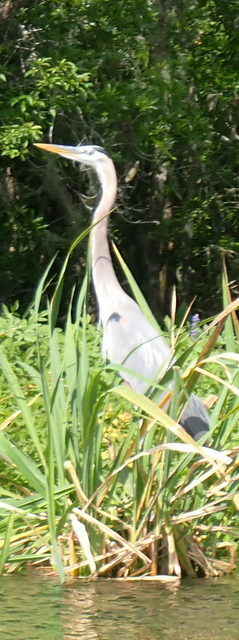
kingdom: Animalia
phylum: Chordata
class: Aves
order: Pelecaniformes
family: Ardeidae
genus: Ardea
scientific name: Ardea herodias
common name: Great blue heron
